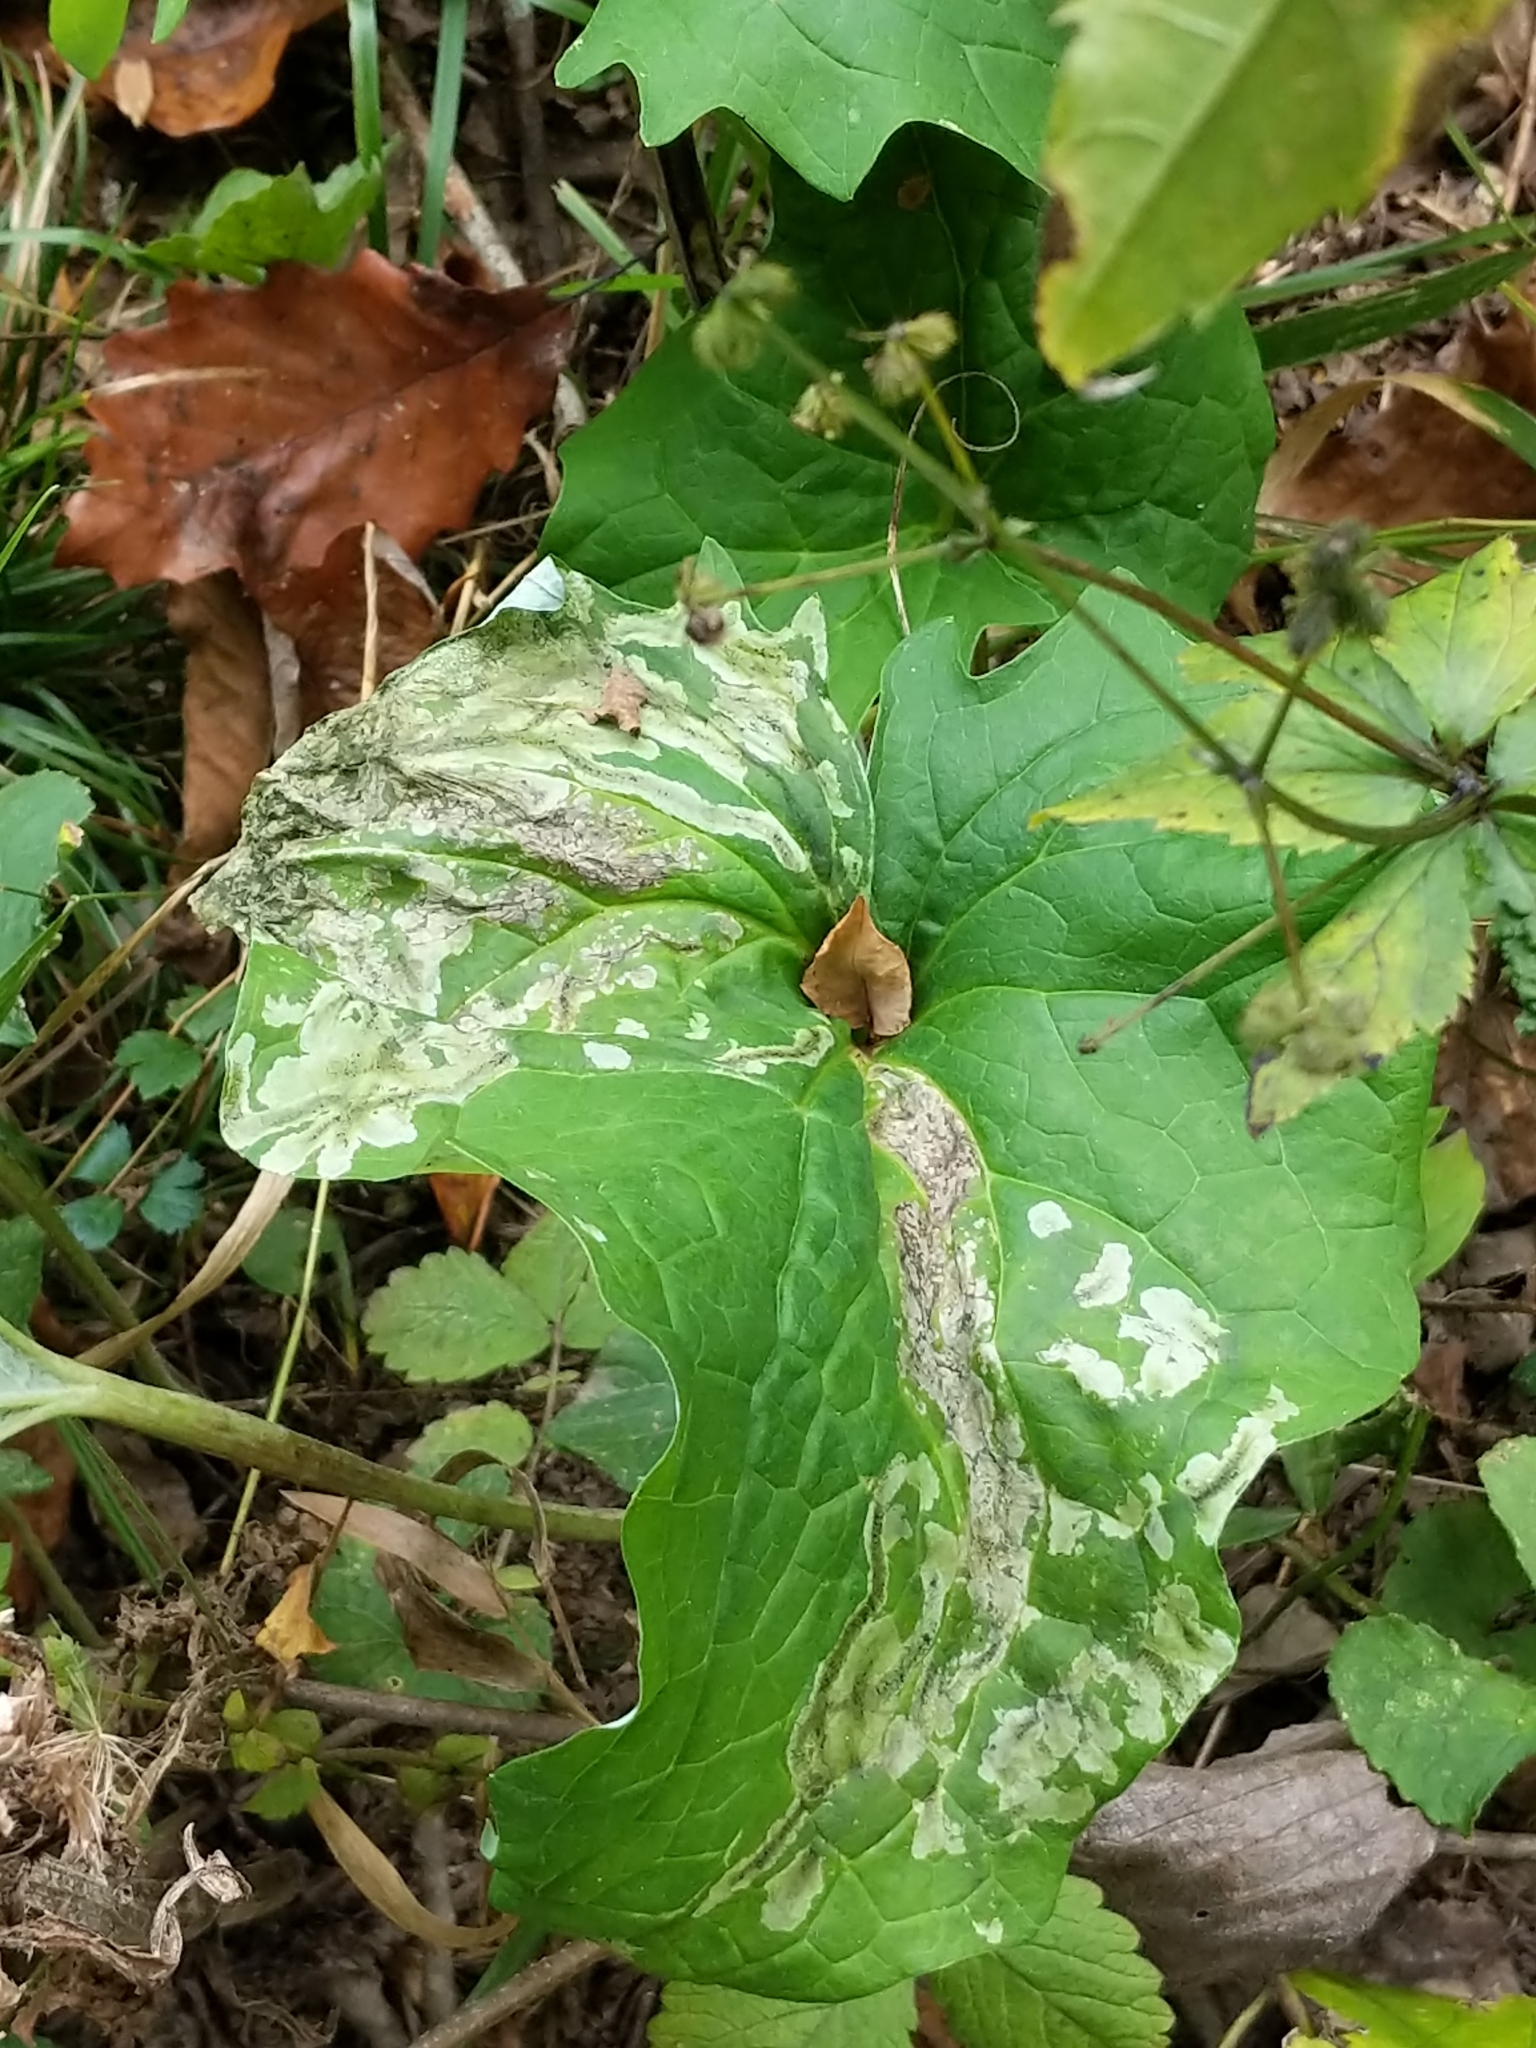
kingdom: Animalia
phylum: Arthropoda
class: Insecta
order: Diptera
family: Tephritidae
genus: Trypeta
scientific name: Trypeta flaveola
